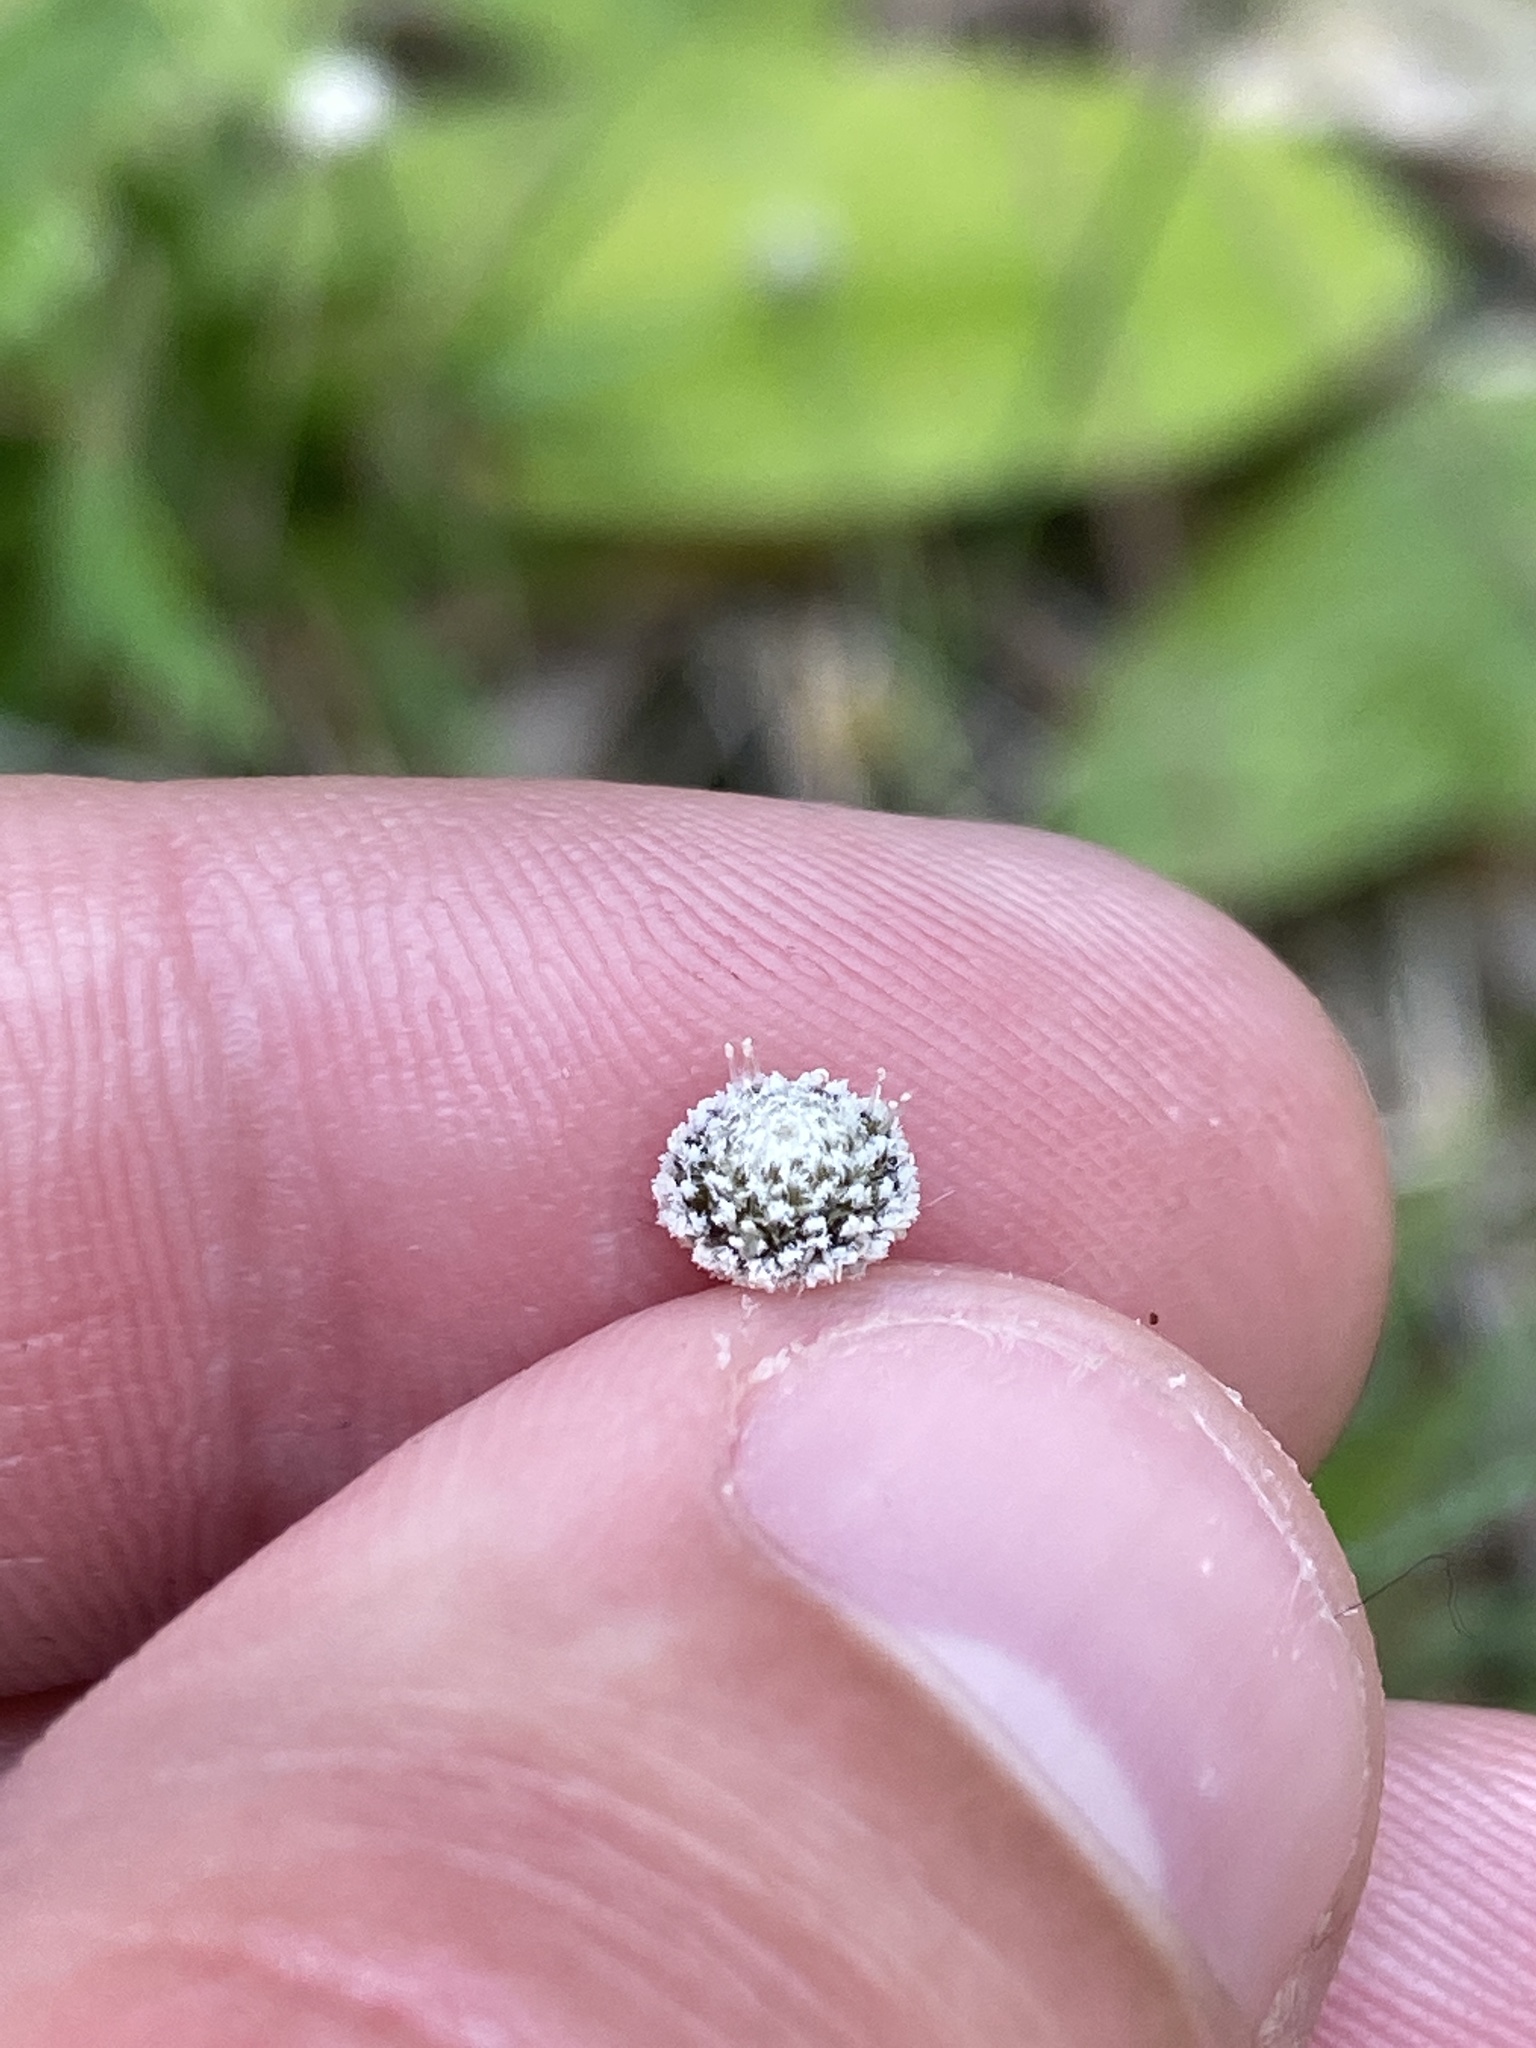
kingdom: Plantae
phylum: Tracheophyta
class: Liliopsida
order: Poales
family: Eriocaulaceae
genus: Paepalanthus
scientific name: Paepalanthus anceps
